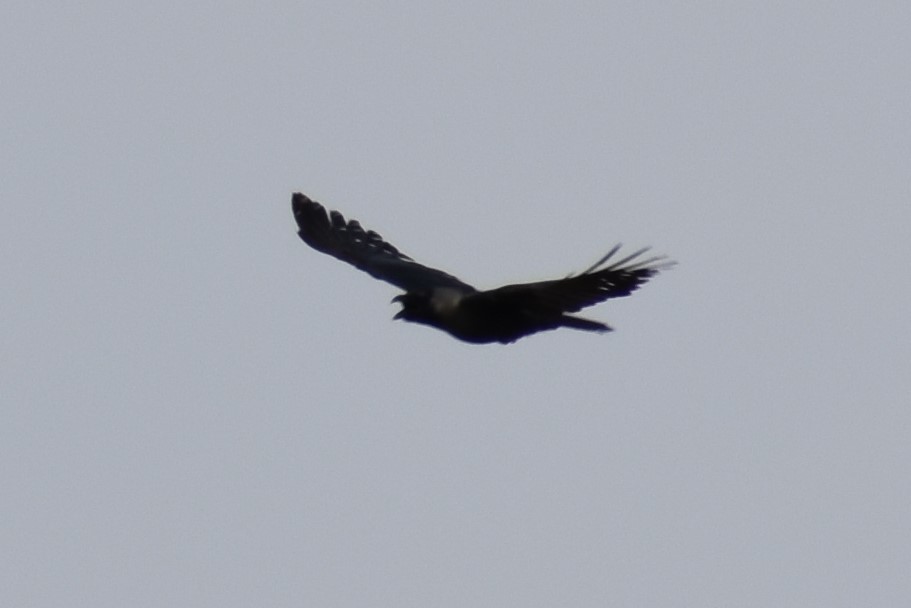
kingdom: Animalia
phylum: Chordata
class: Aves
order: Passeriformes
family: Corvidae
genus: Corvus
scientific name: Corvus splendens
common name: House crow
